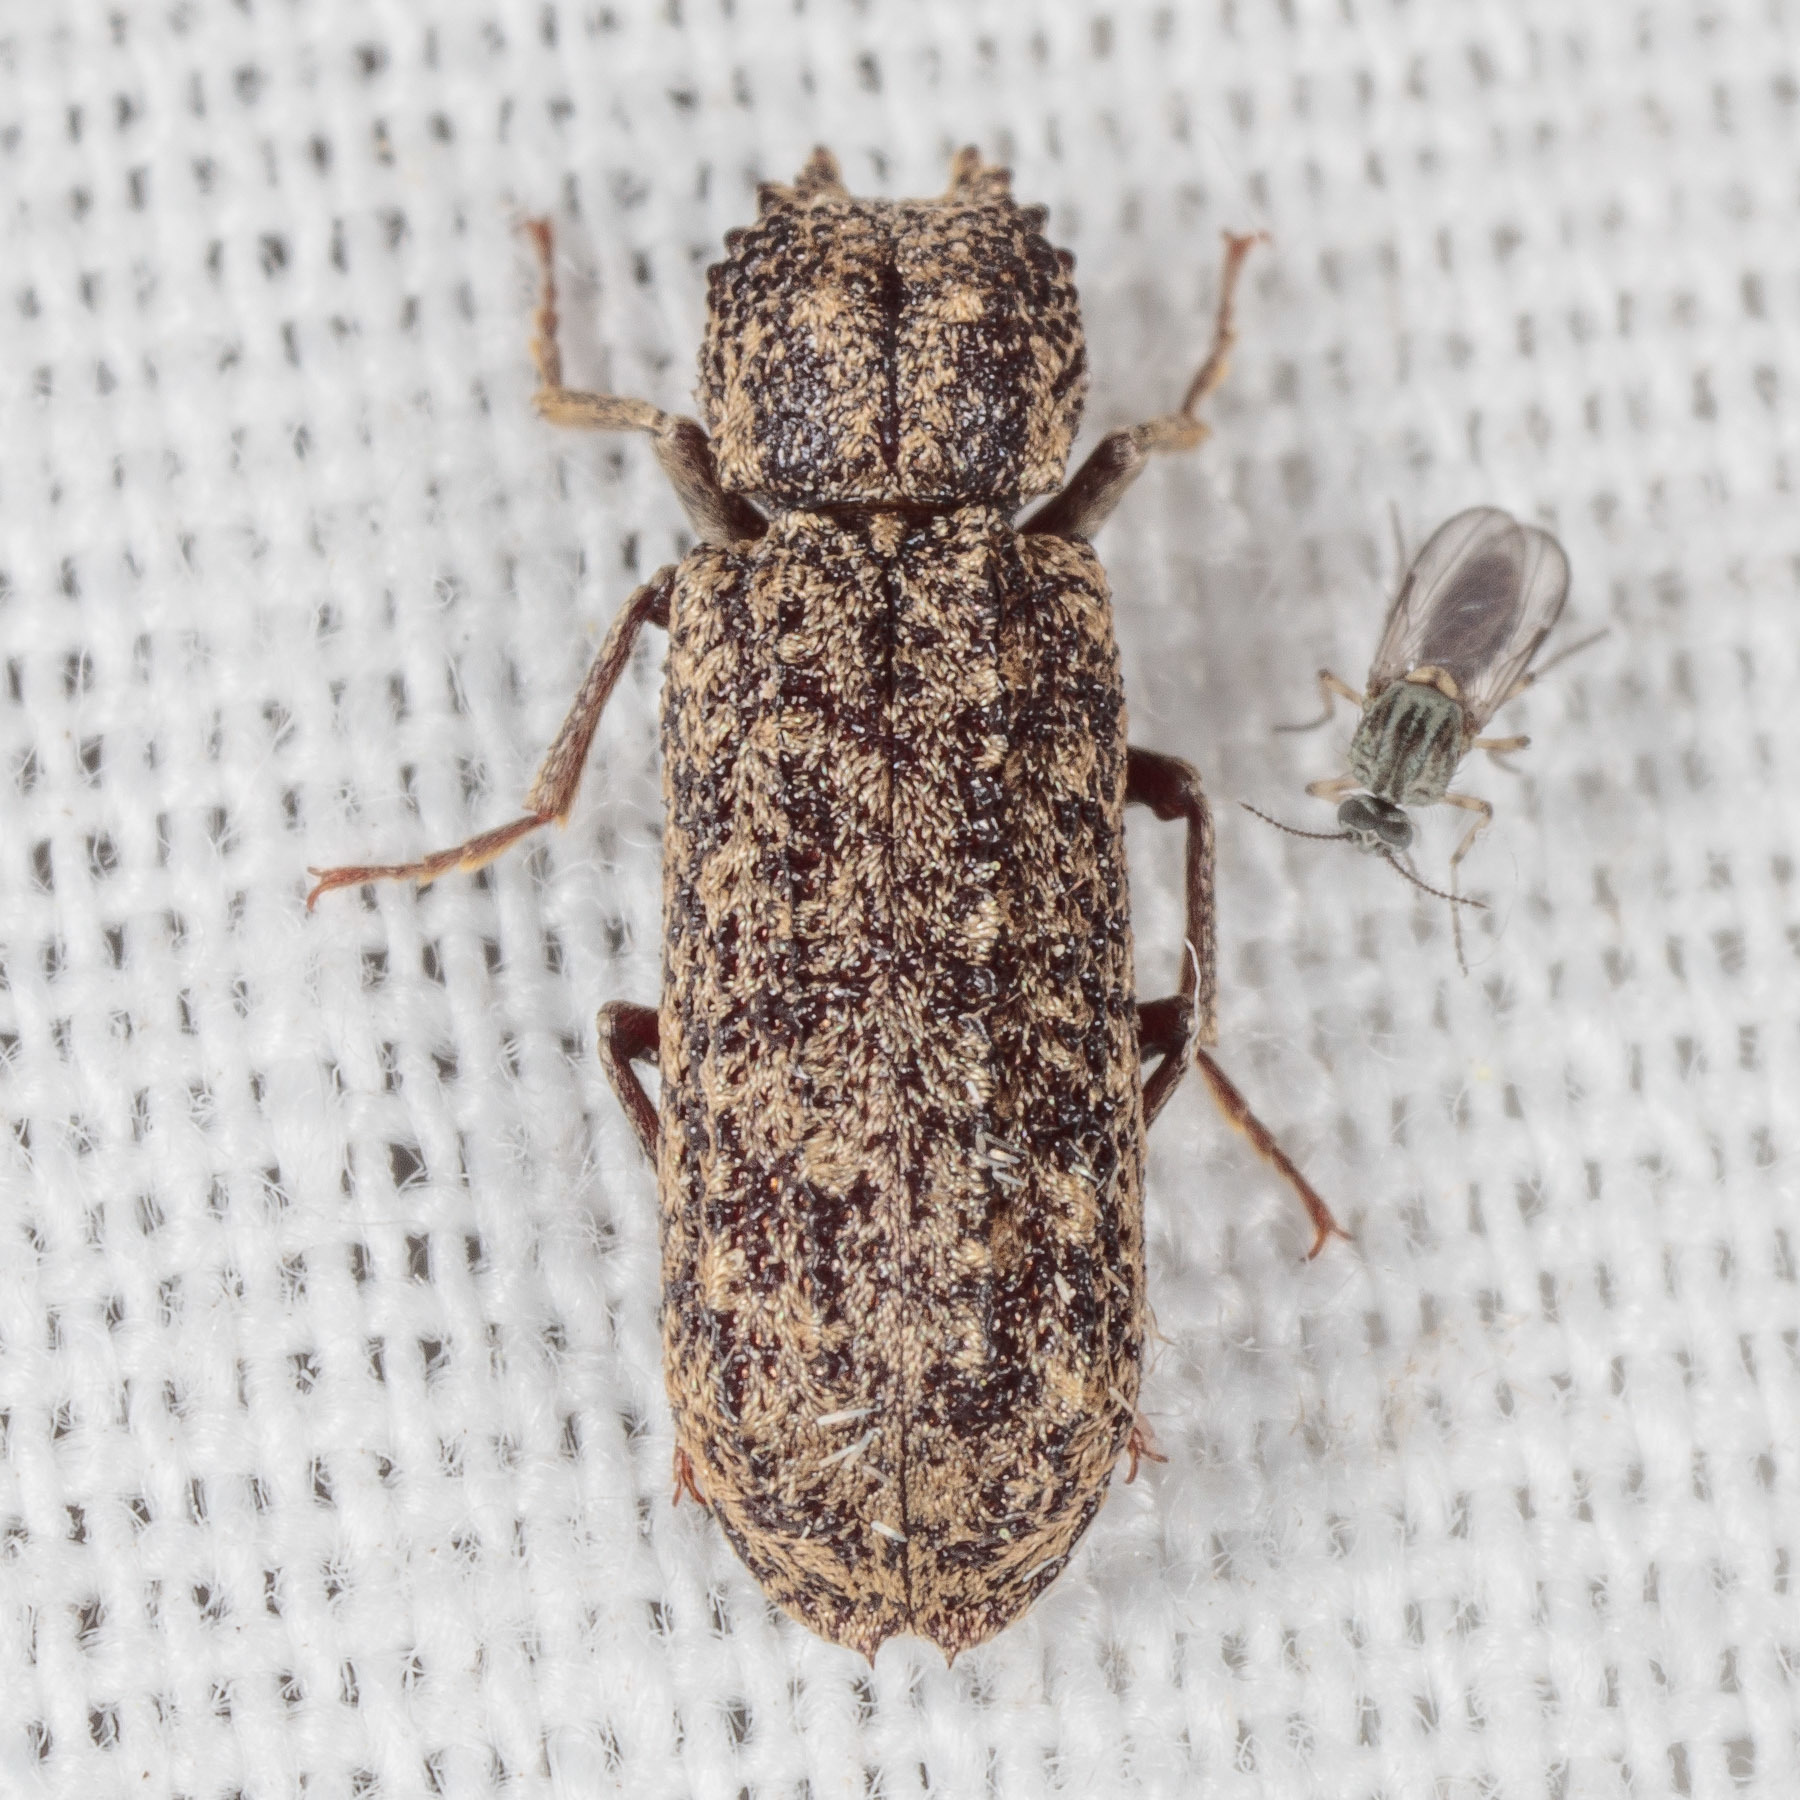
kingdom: Animalia
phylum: Arthropoda
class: Insecta
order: Coleoptera
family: Bostrichidae
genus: Lichenophanes
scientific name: Lichenophanes bicornis
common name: Two-horned powder-post beetle
